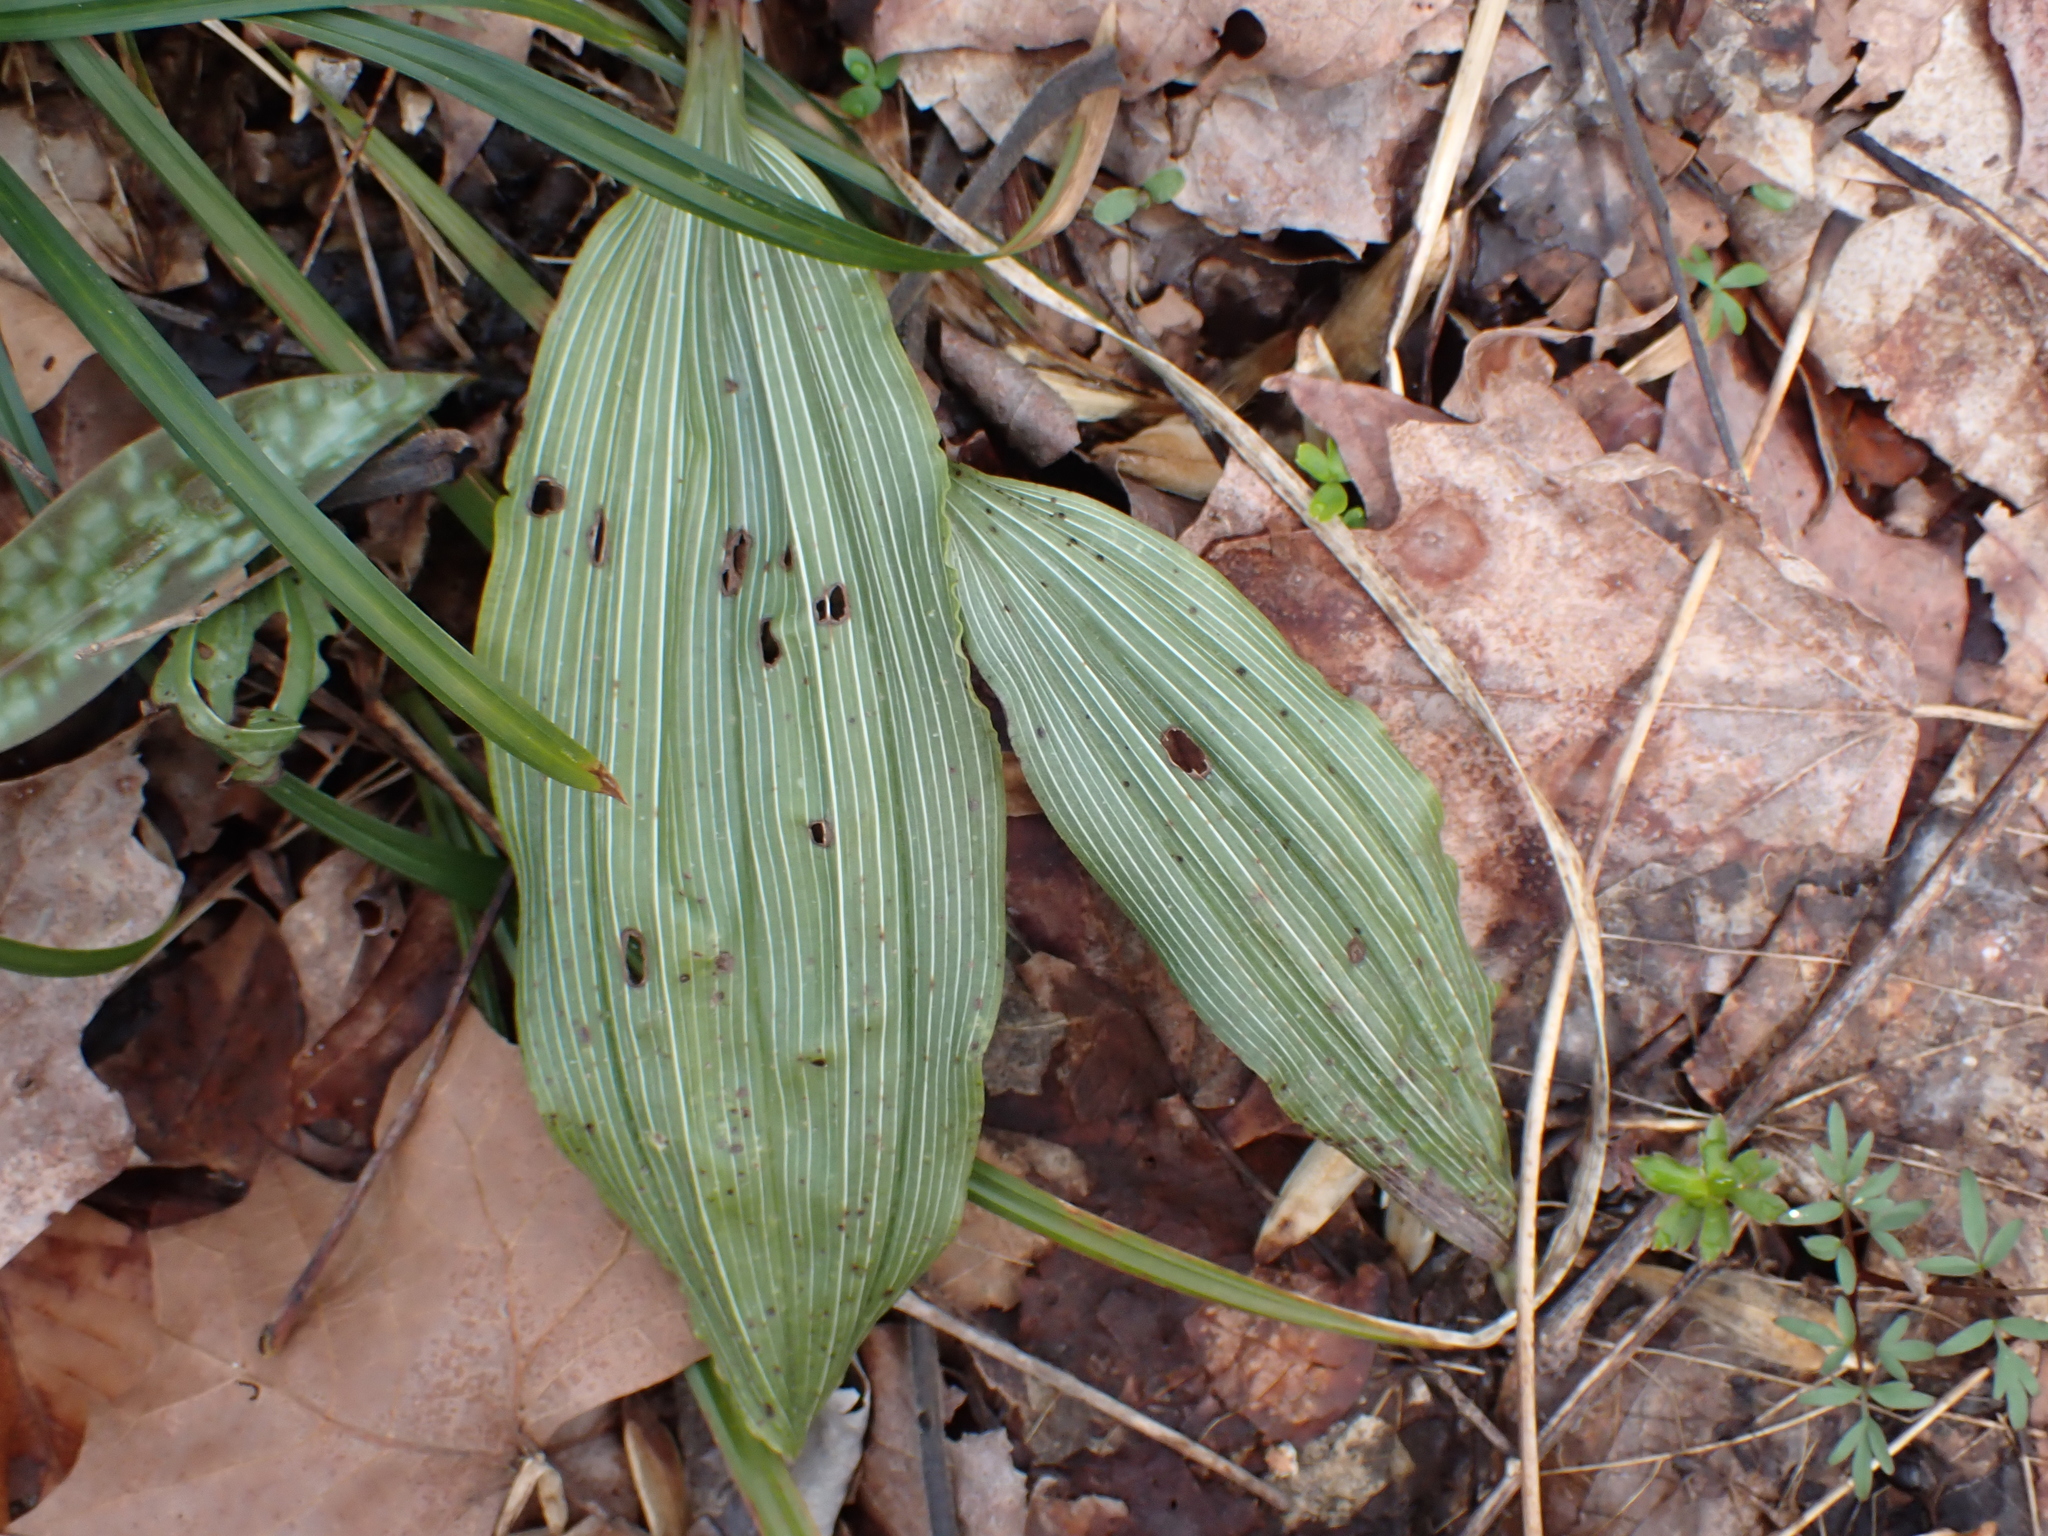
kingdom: Plantae
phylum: Tracheophyta
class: Liliopsida
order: Asparagales
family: Orchidaceae
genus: Aplectrum
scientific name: Aplectrum hyemale
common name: Adam-and-eve
